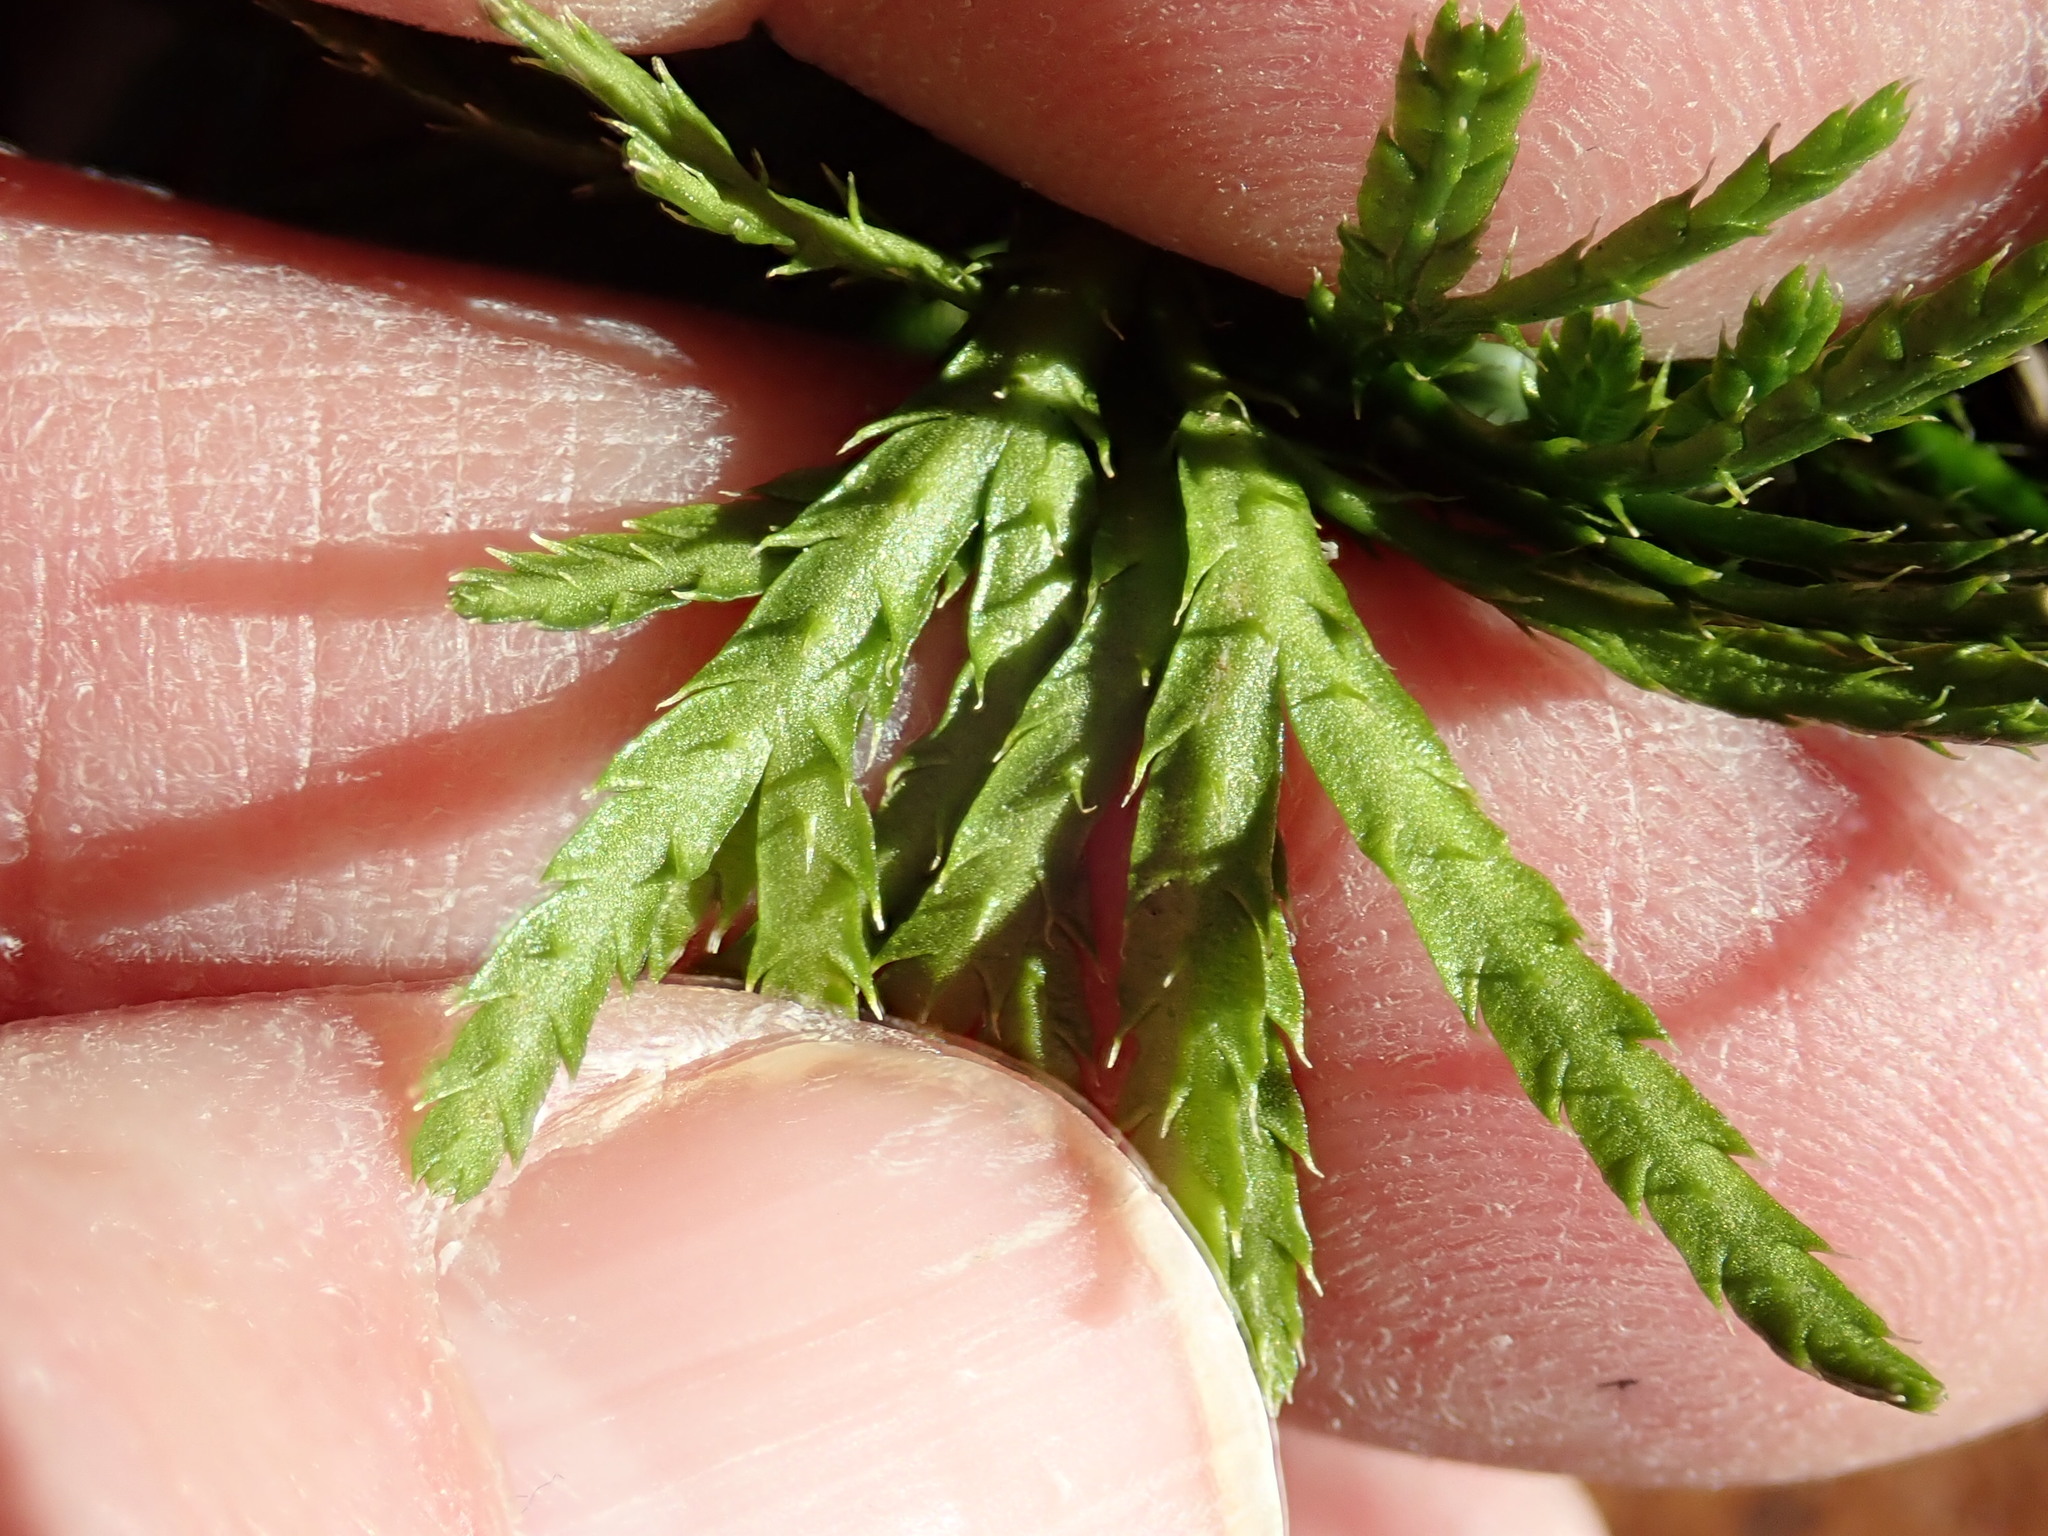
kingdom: Plantae
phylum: Tracheophyta
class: Lycopodiopsida
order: Lycopodiales
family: Lycopodiaceae
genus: Diphasiastrum
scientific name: Diphasiastrum digitatum
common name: Southern running-pine
